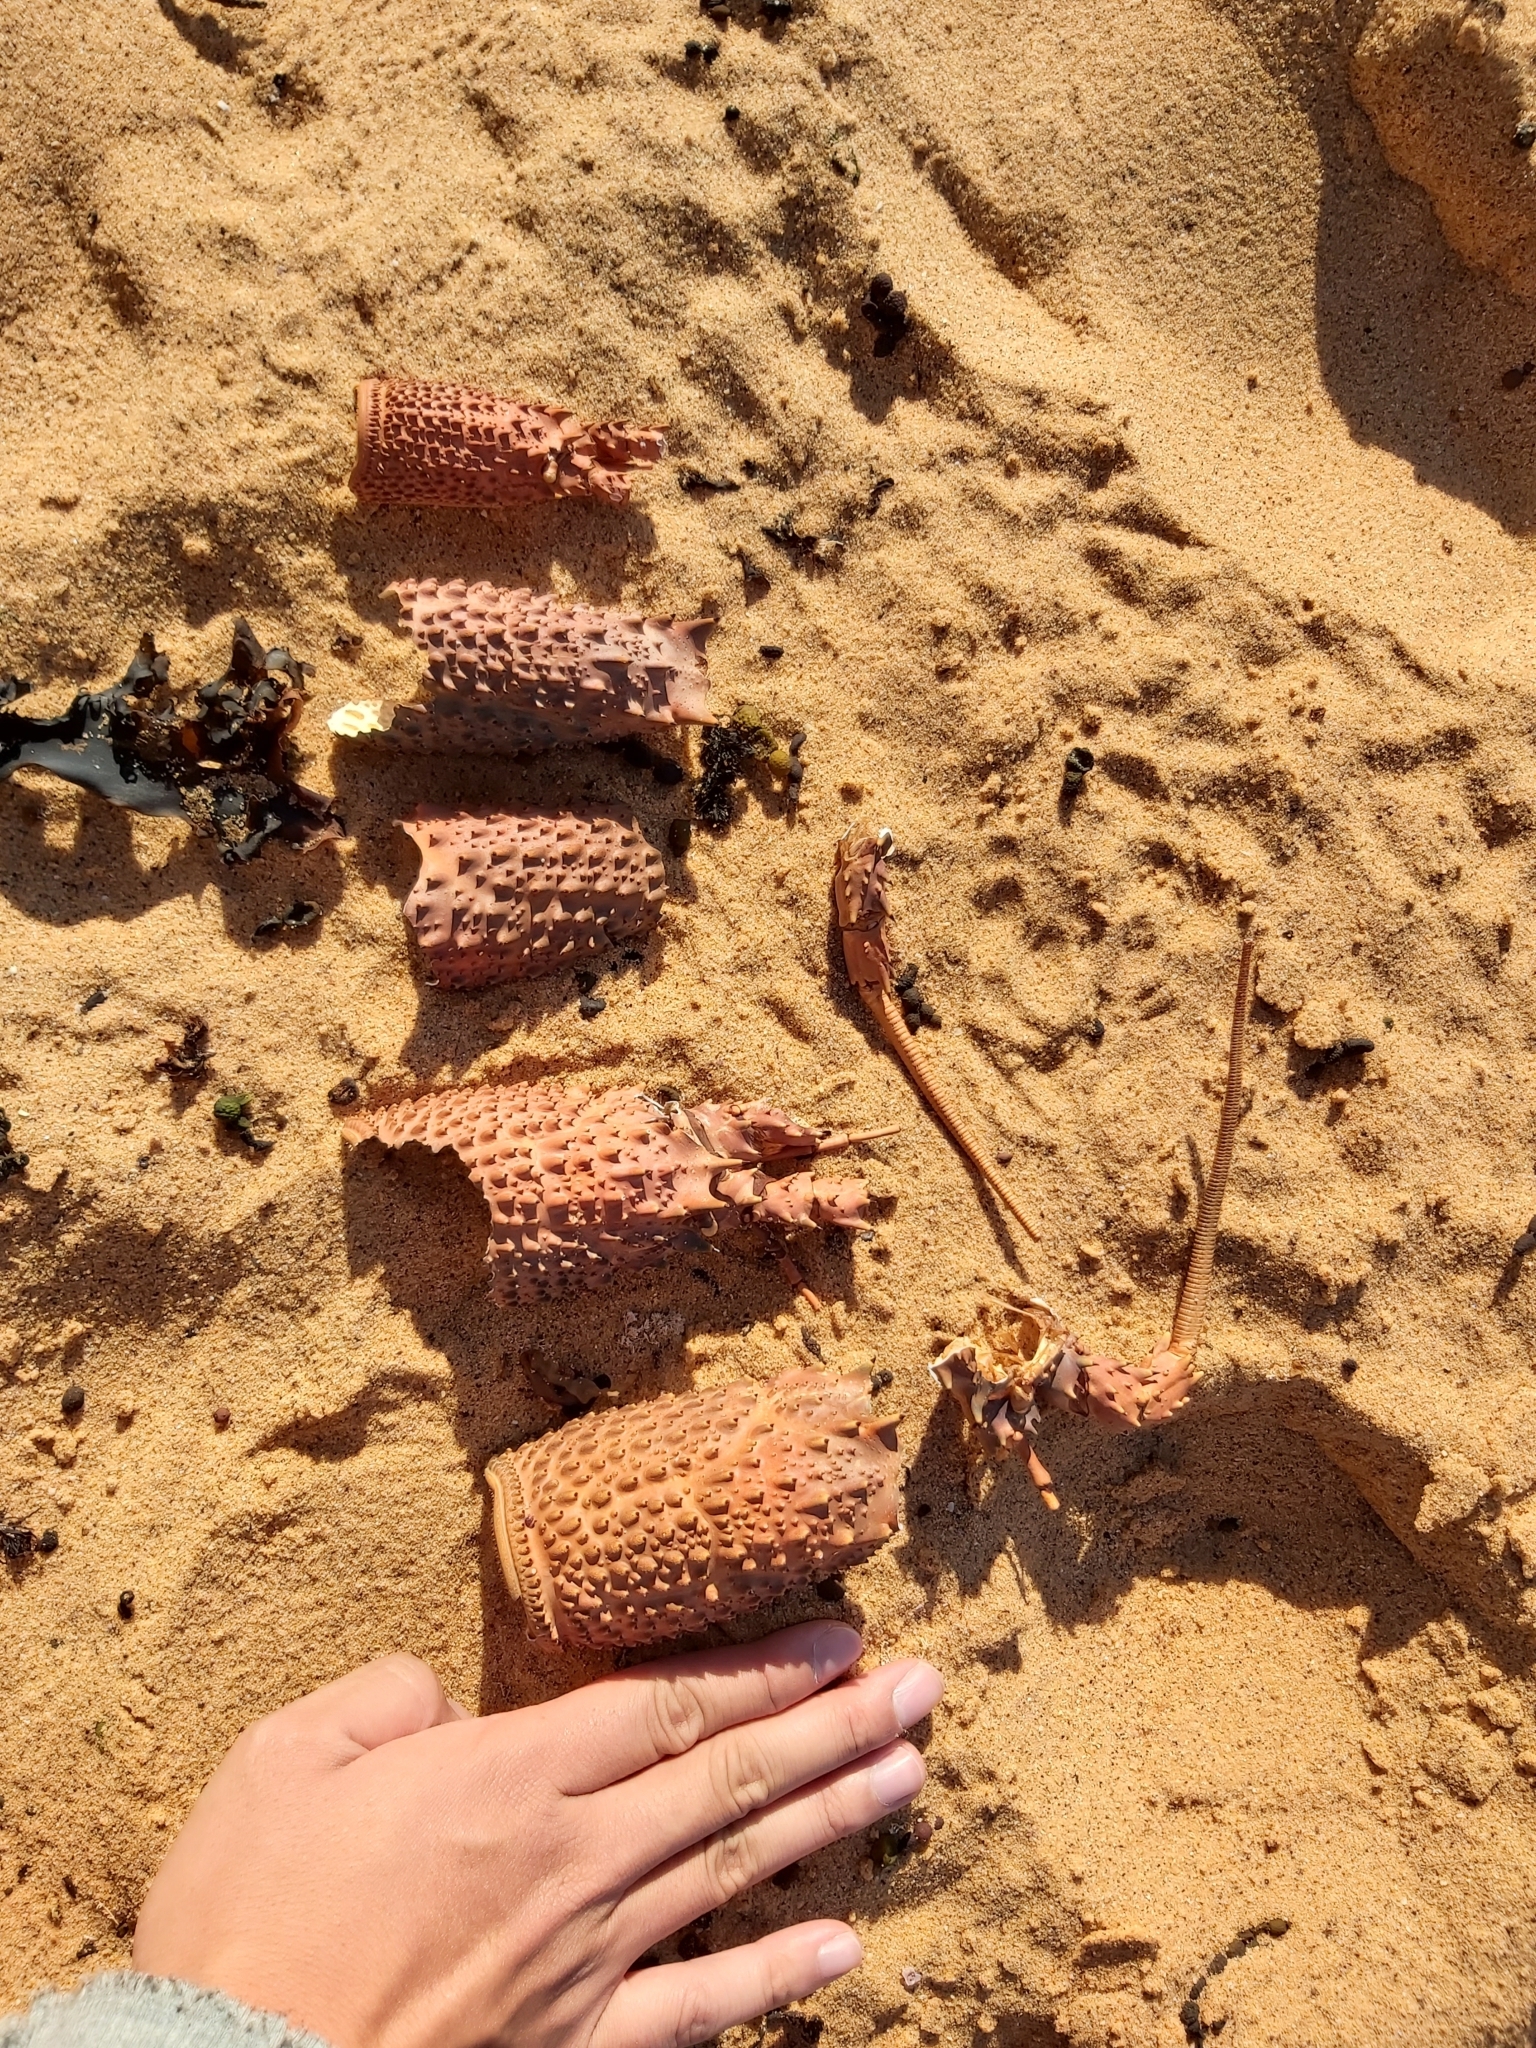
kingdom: Animalia
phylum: Arthropoda
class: Malacostraca
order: Decapoda
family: Palinuridae
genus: Sagmariasus
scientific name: Sagmariasus verreauxi
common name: Green rock lobster
